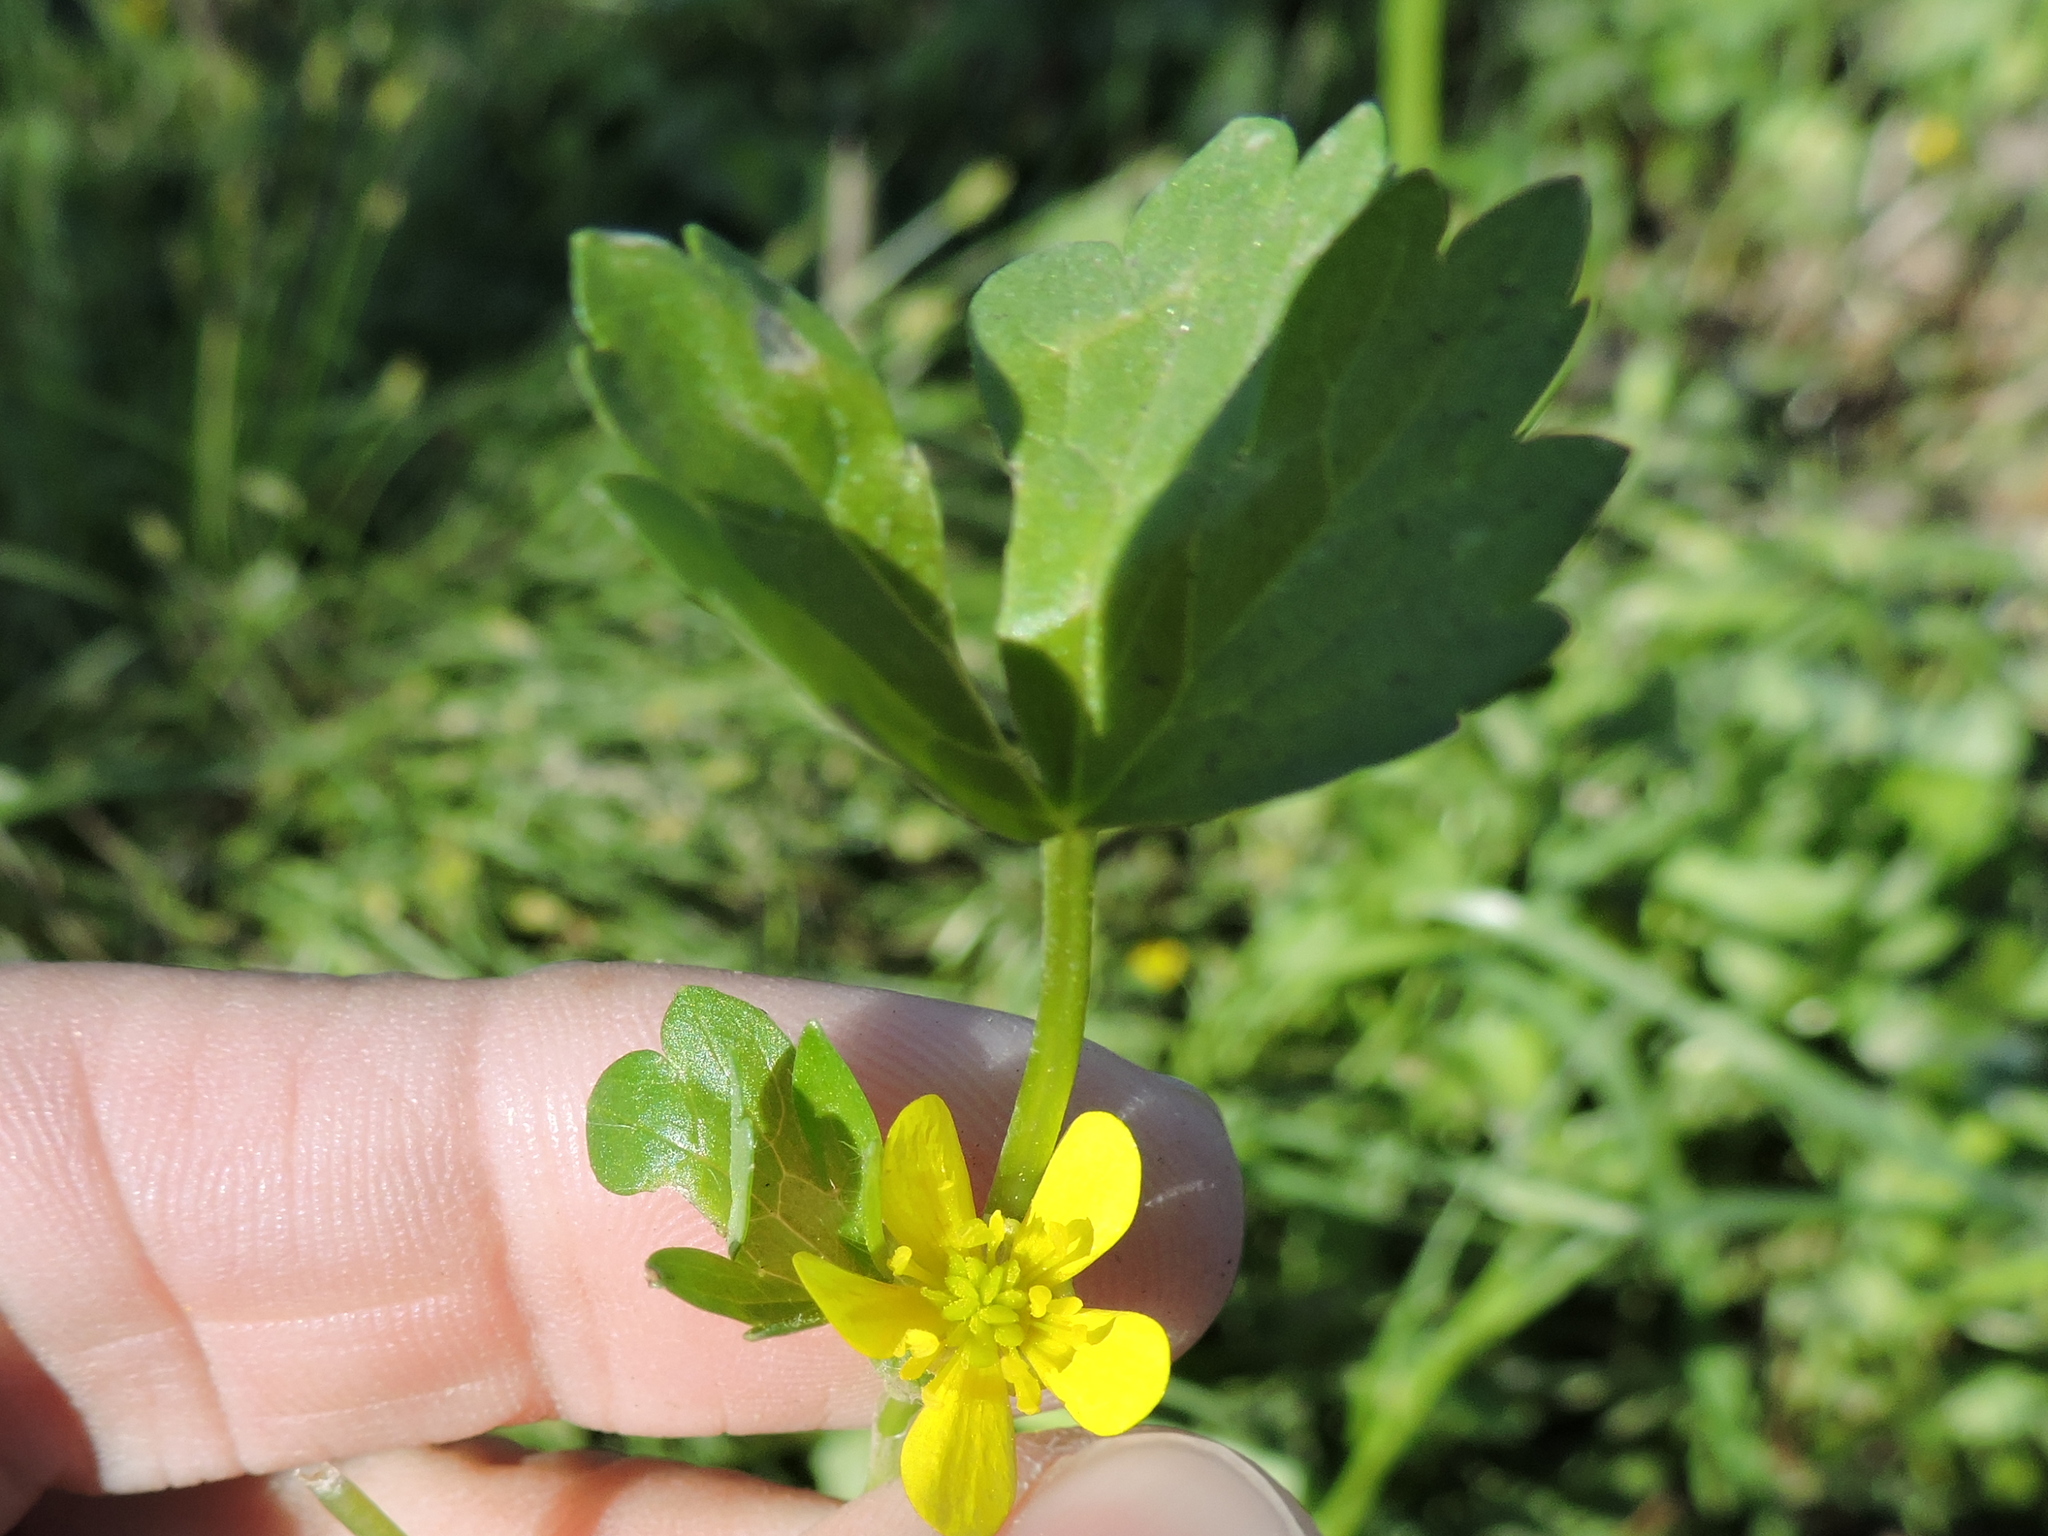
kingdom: Plantae
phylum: Tracheophyta
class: Magnoliopsida
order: Ranunculales
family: Ranunculaceae
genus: Ranunculus
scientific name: Ranunculus sceleratus
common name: Celery-leaved buttercup
